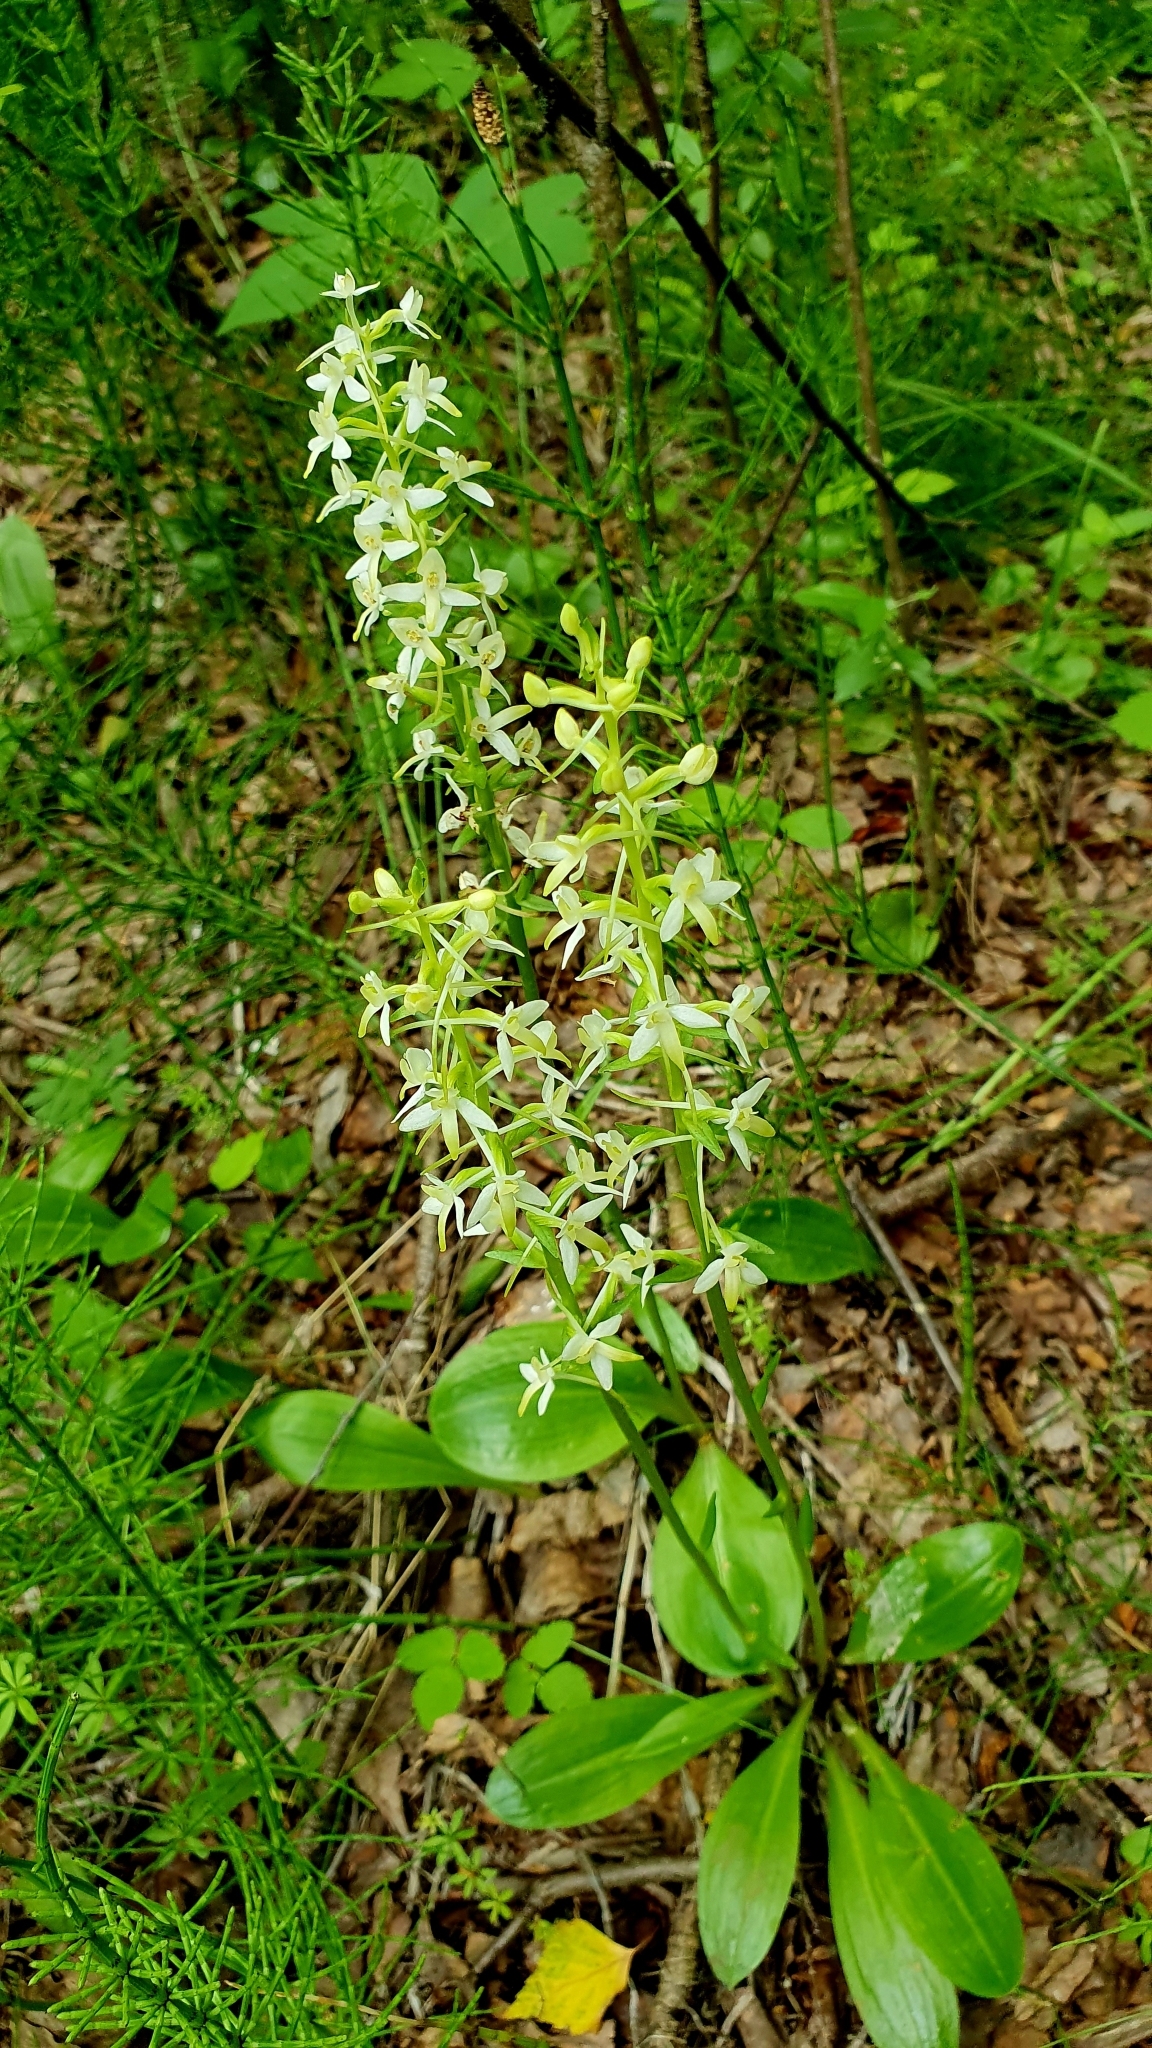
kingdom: Plantae
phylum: Tracheophyta
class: Liliopsida
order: Asparagales
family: Orchidaceae
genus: Platanthera
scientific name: Platanthera bifolia
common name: Lesser butterfly-orchid
